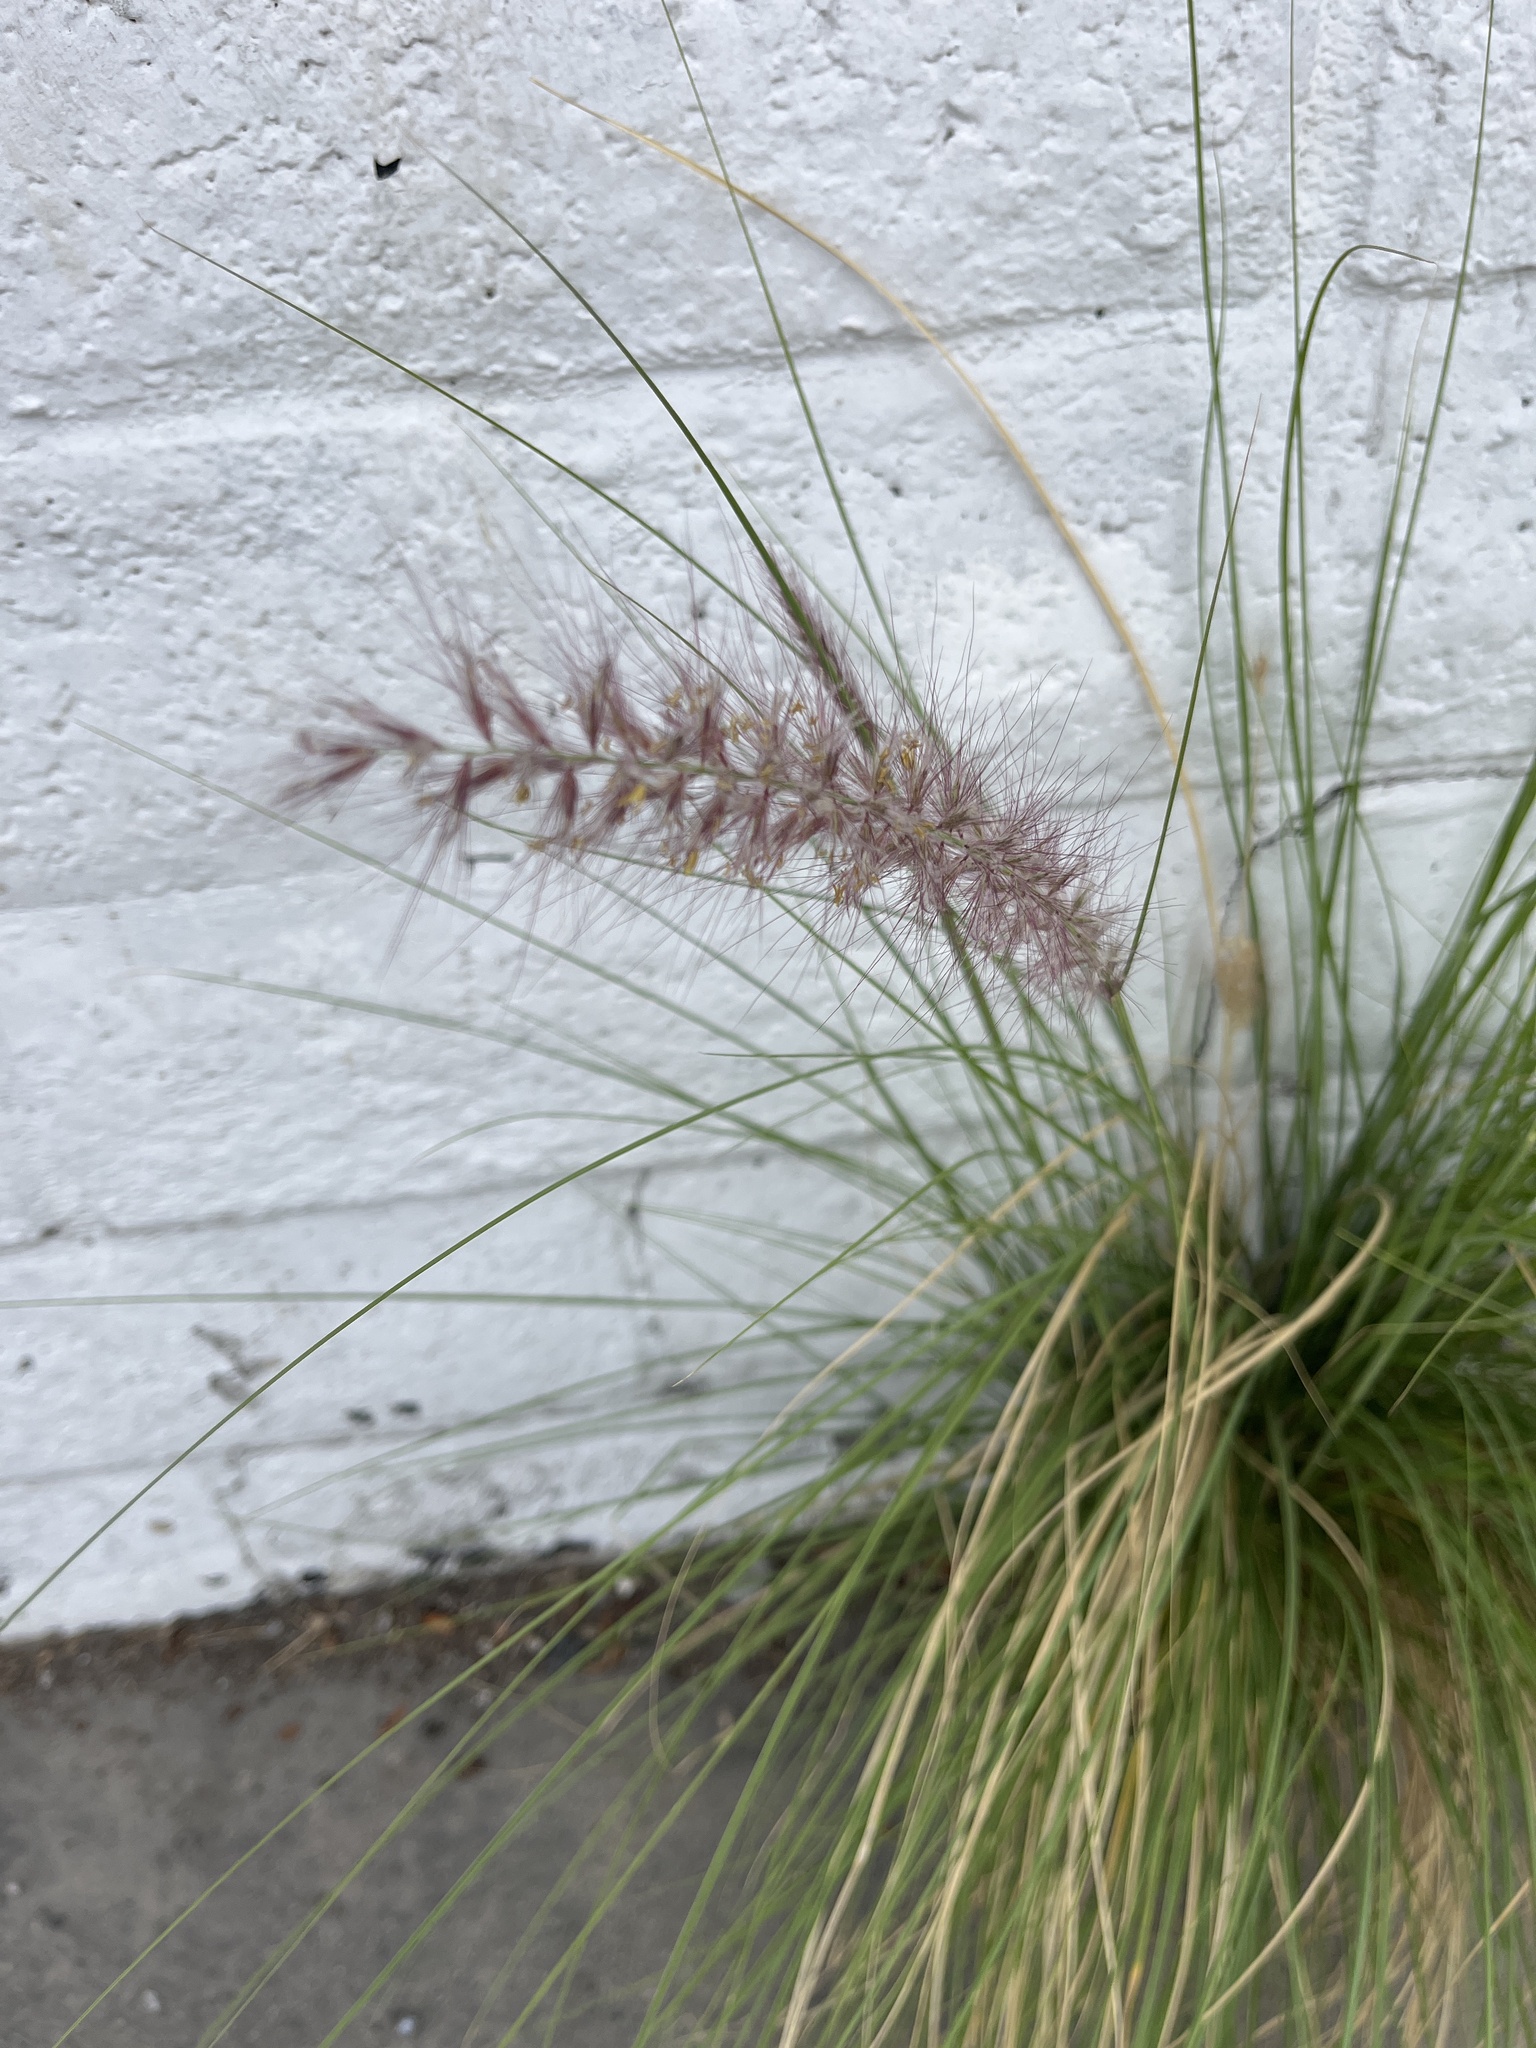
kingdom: Plantae
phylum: Tracheophyta
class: Liliopsida
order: Poales
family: Poaceae
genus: Cenchrus
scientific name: Cenchrus setaceus
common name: Crimson fountaingrass
